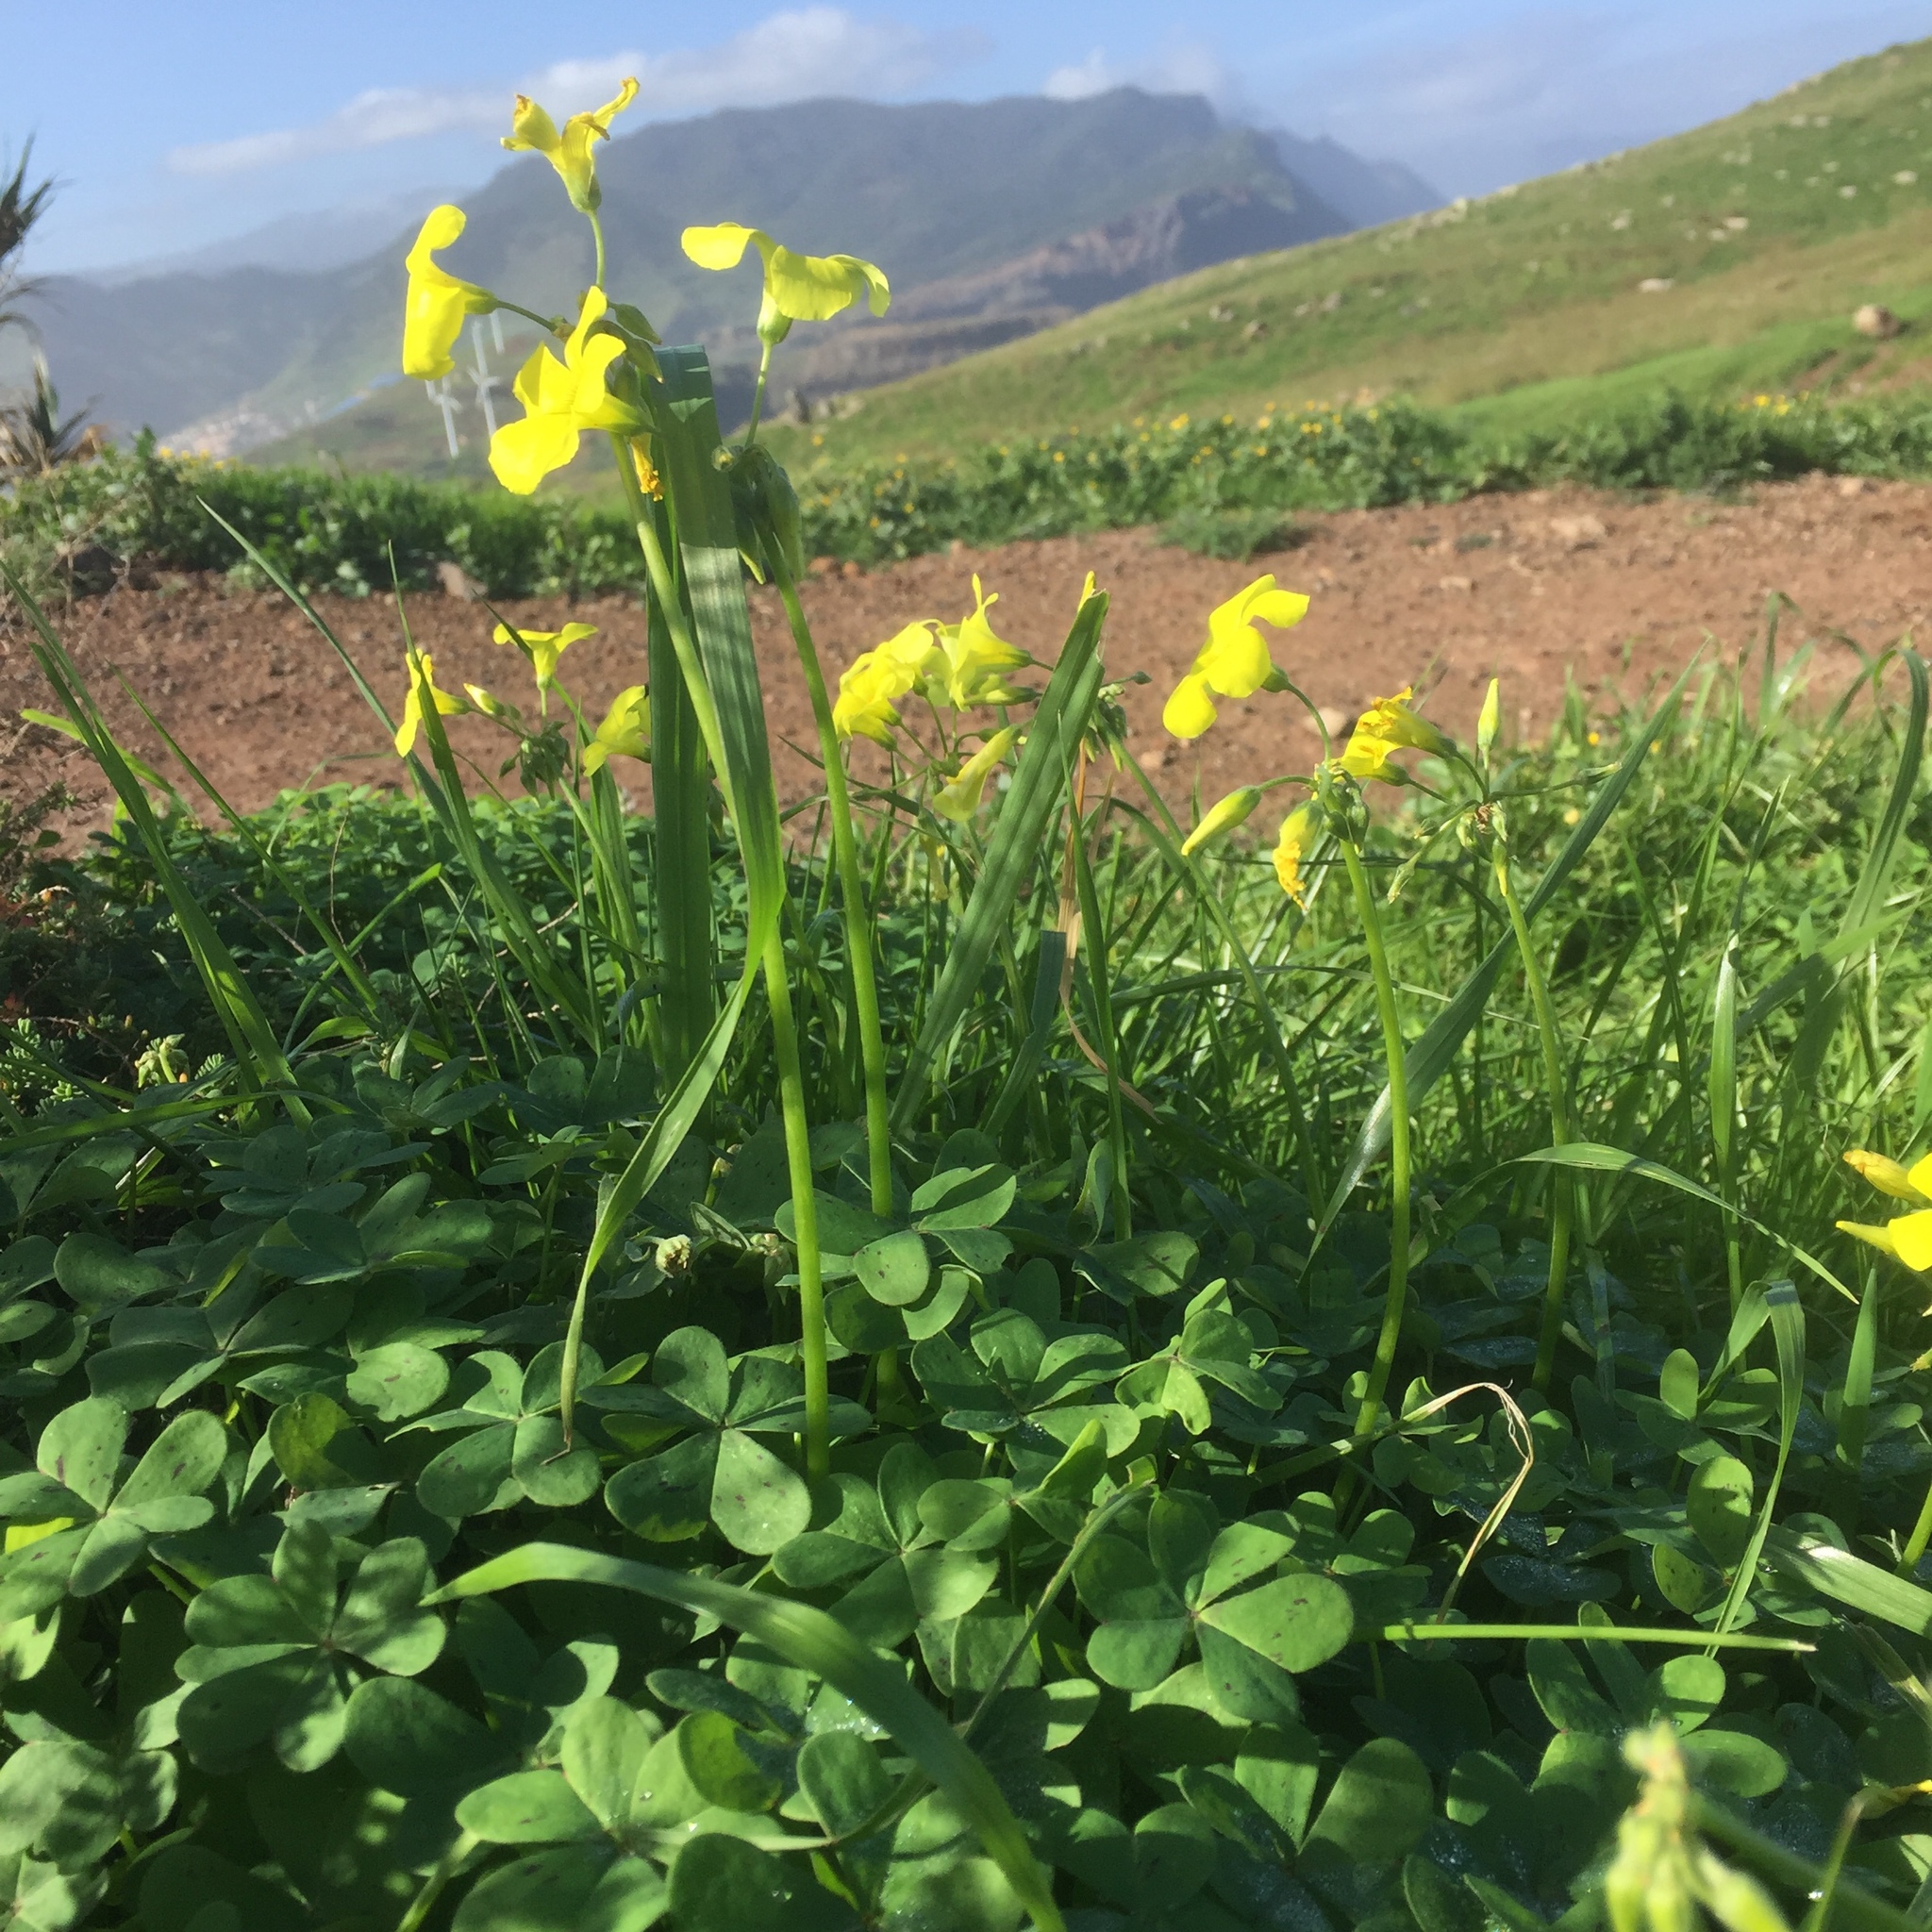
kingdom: Plantae
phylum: Tracheophyta
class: Magnoliopsida
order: Oxalidales
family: Oxalidaceae
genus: Oxalis
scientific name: Oxalis pes-caprae
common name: Bermuda-buttercup
